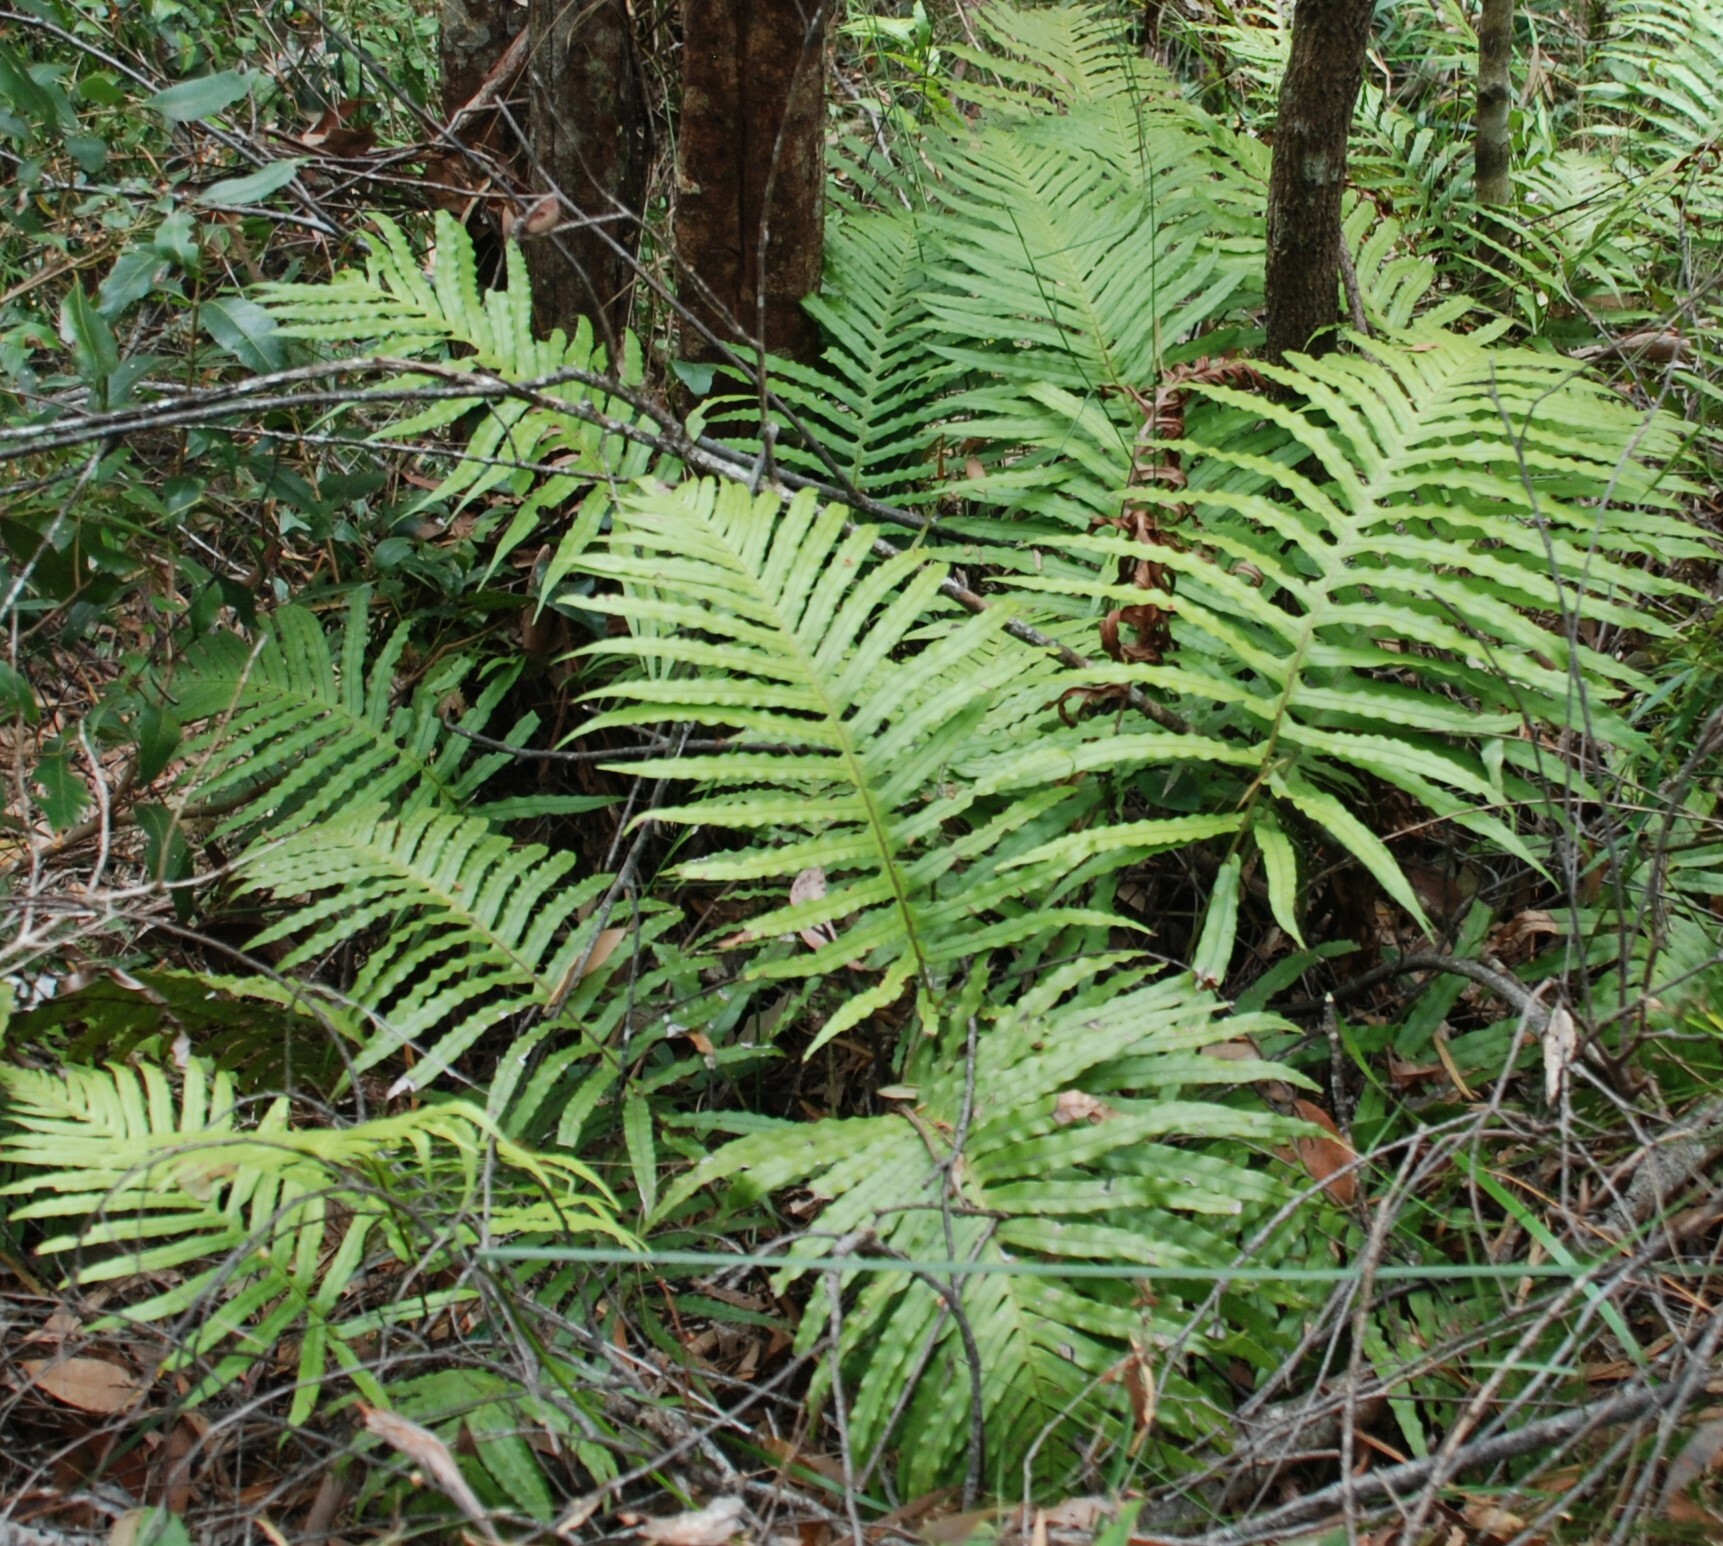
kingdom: Plantae
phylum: Tracheophyta
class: Polypodiopsida
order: Polypodiales
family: Blechnaceae
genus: Oceaniopteris
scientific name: Oceaniopteris cartilaginea
